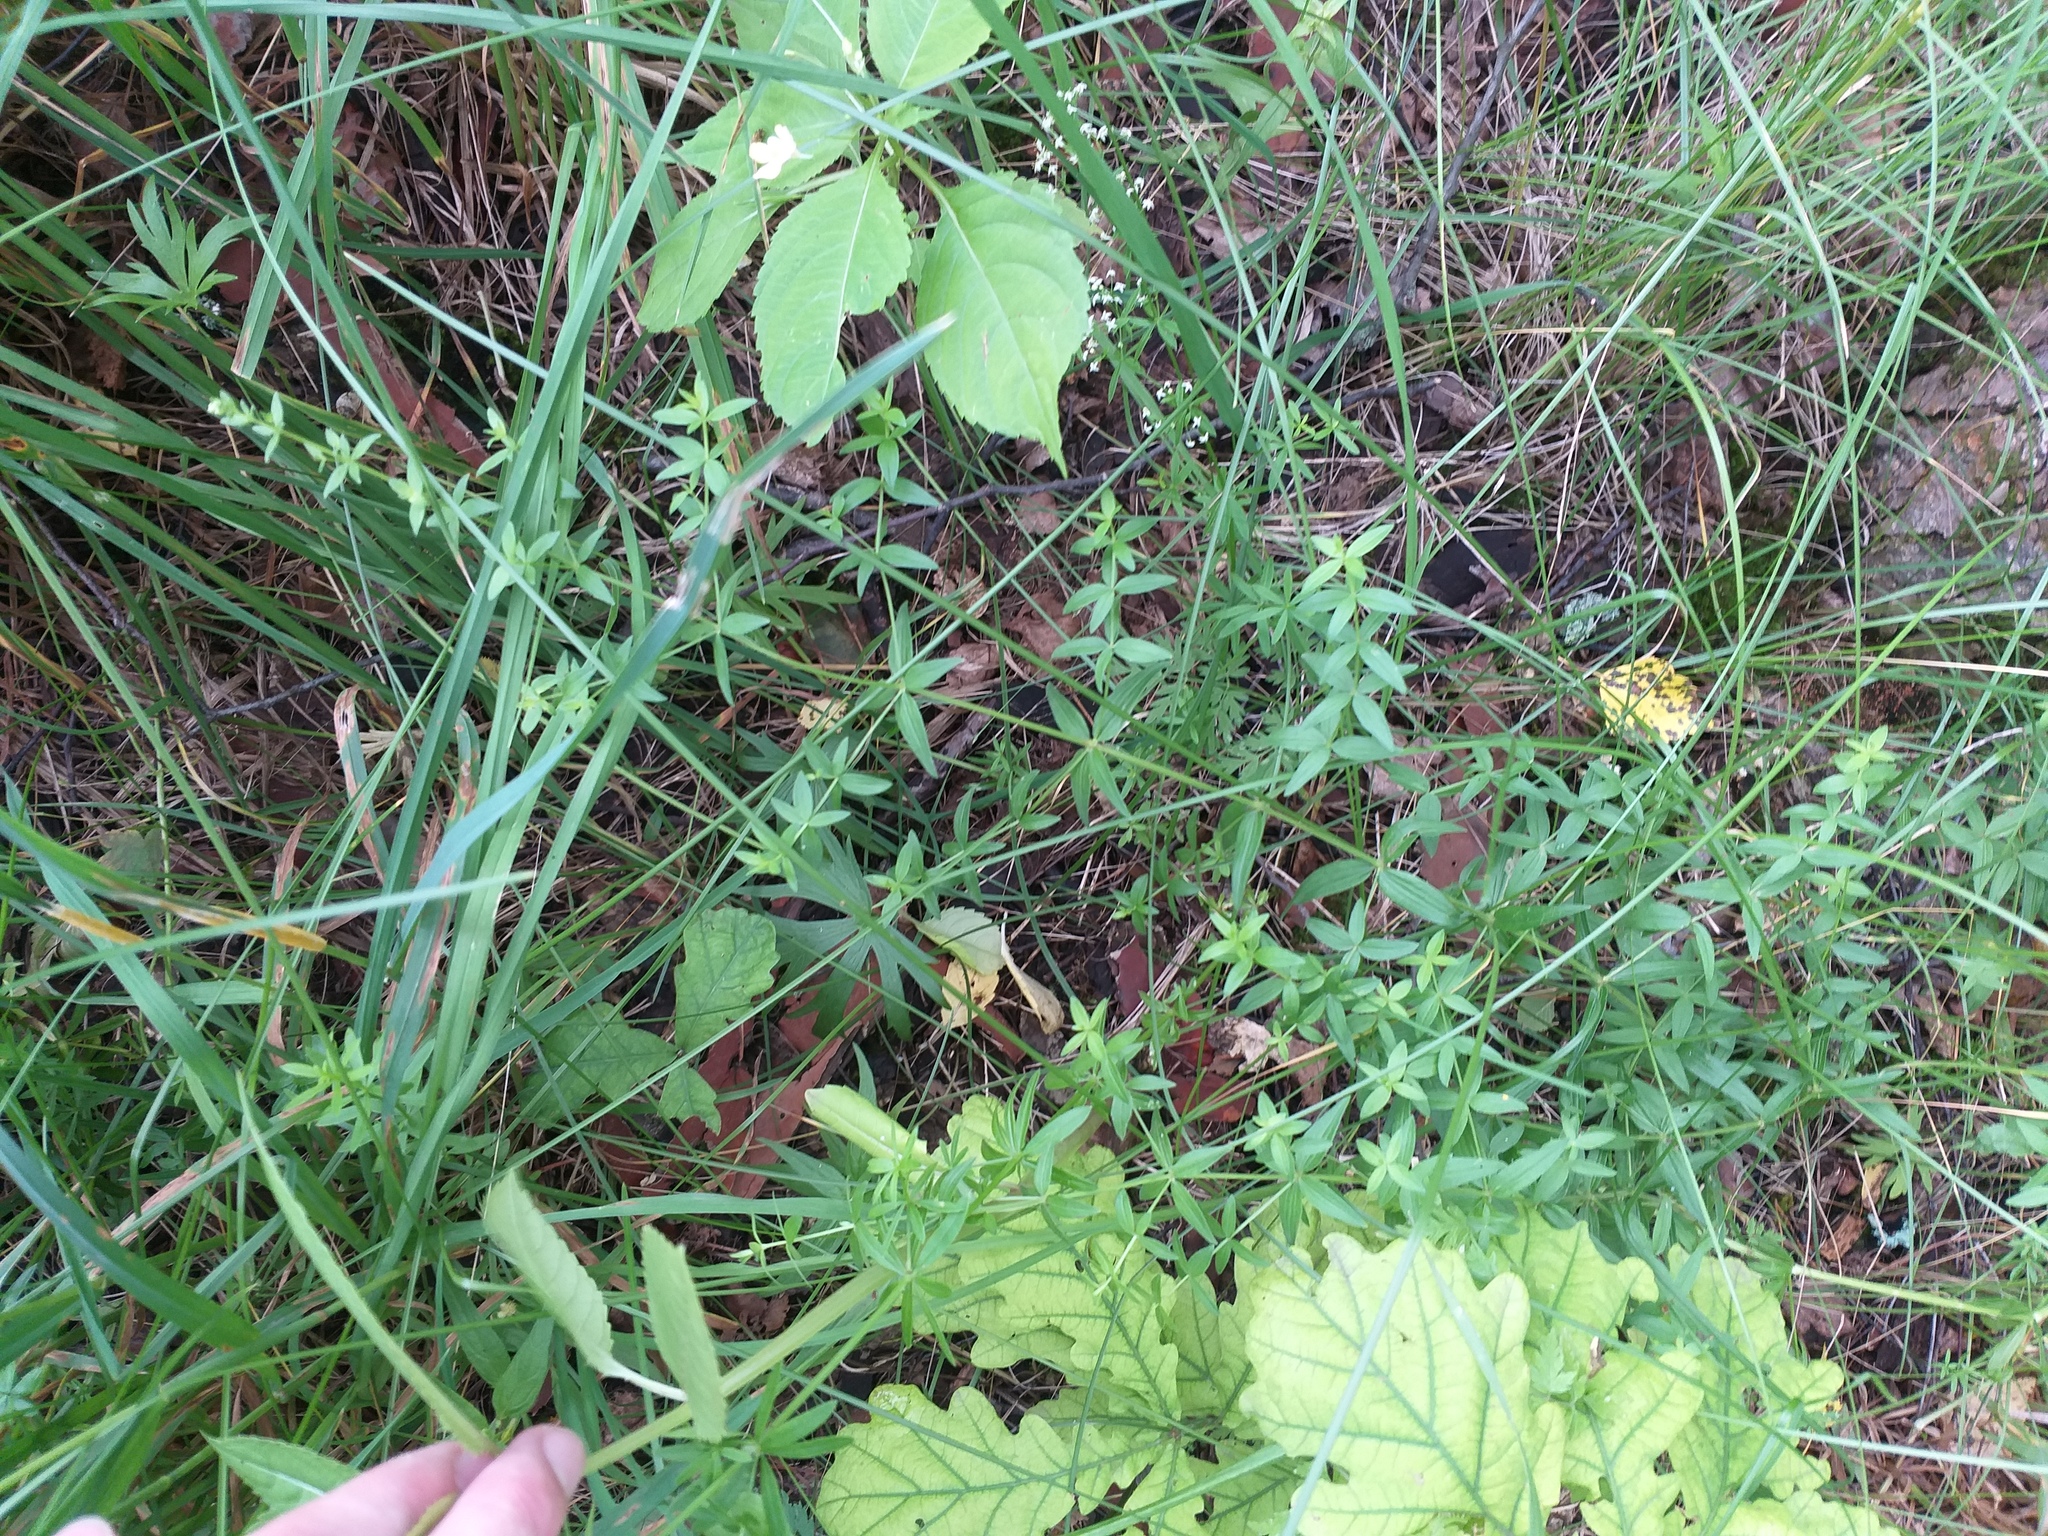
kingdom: Plantae
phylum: Tracheophyta
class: Magnoliopsida
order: Gentianales
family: Rubiaceae
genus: Galium
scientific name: Galium boreale
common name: Northern bedstraw
